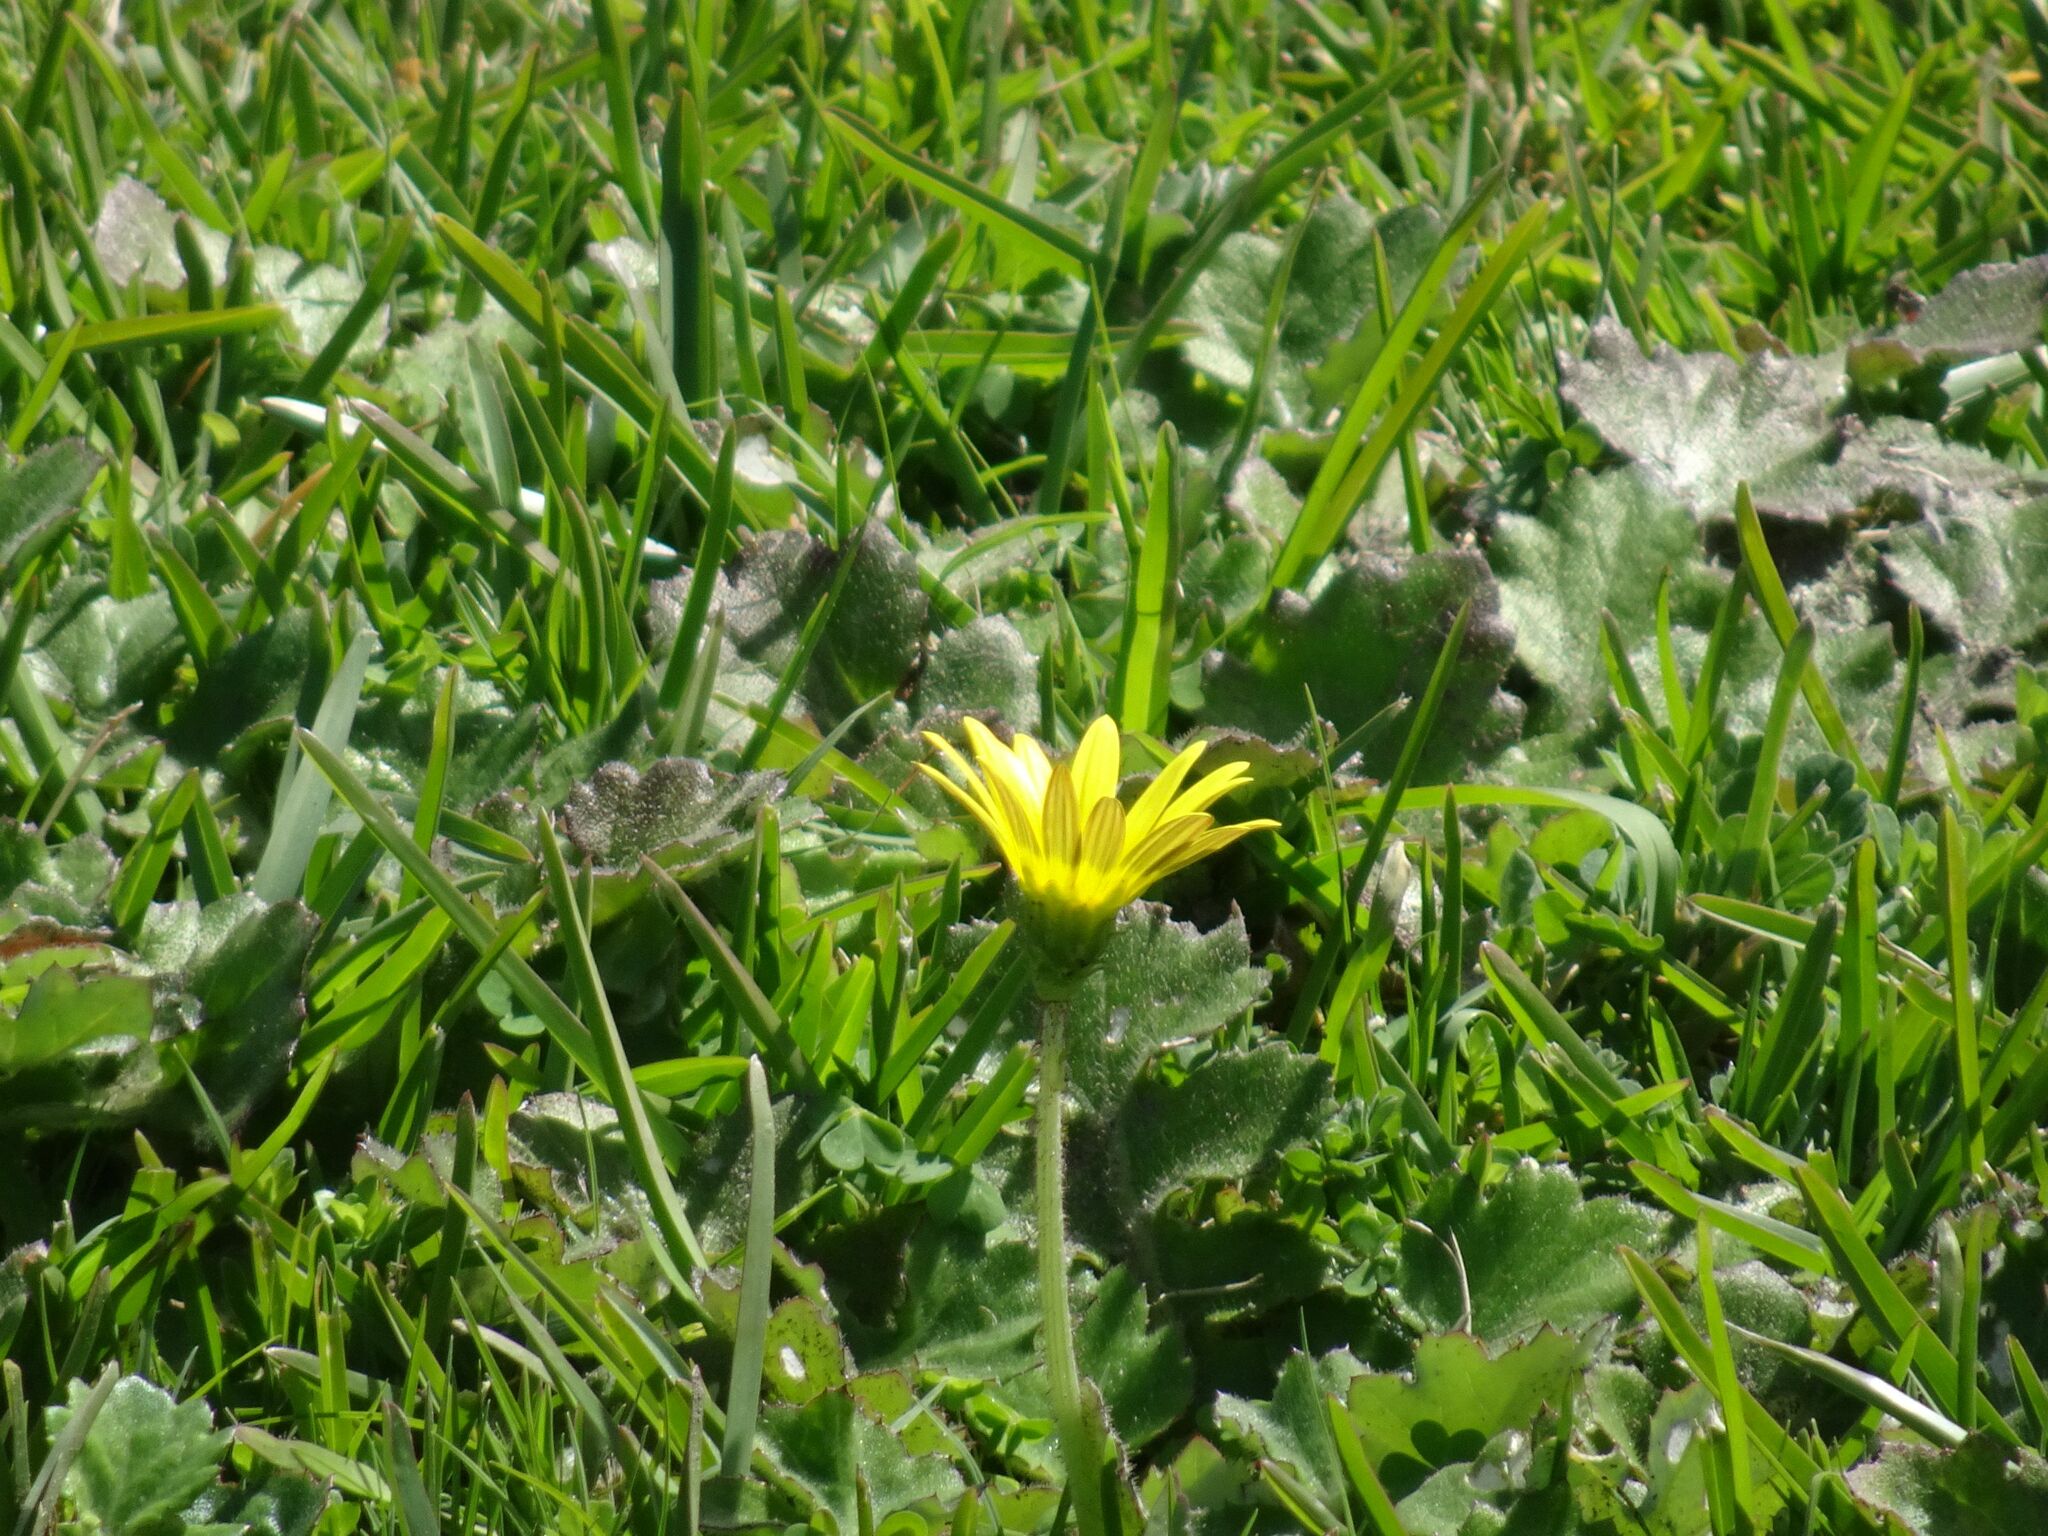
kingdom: Plantae
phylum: Tracheophyta
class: Magnoliopsida
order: Asterales
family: Asteraceae
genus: Arctotheca
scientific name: Arctotheca prostrata
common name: Capeweed
